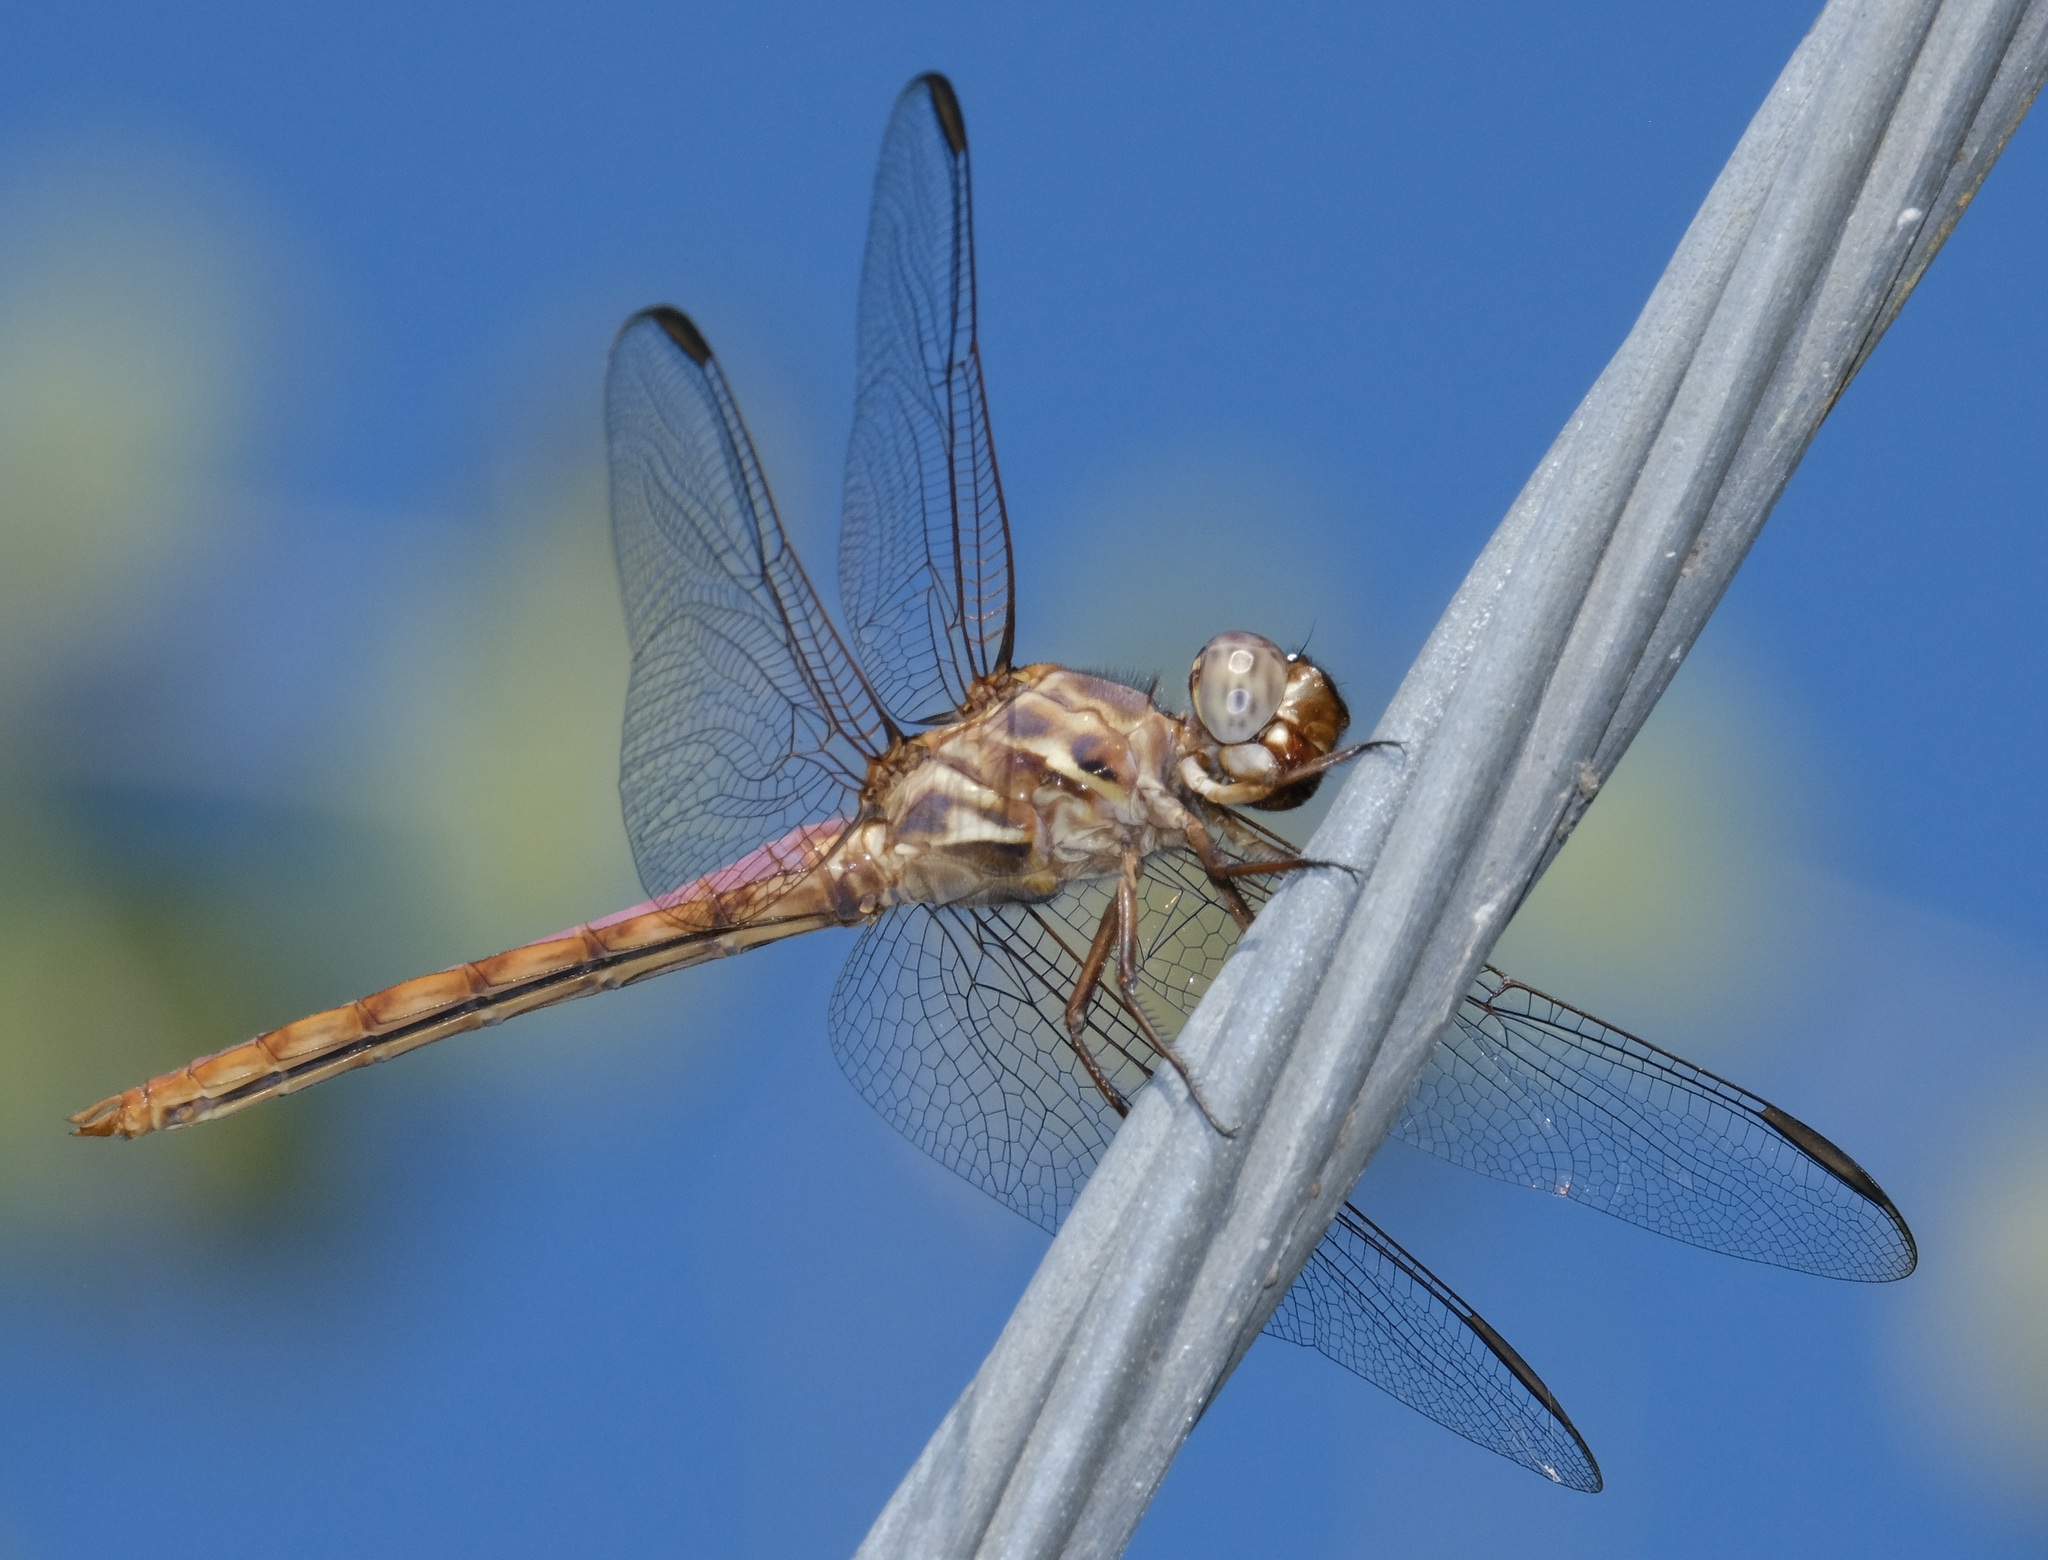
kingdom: Animalia
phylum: Arthropoda
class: Insecta
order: Odonata
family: Libellulidae
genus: Orthemis
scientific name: Orthemis ferruginea
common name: Roseate skimmer
